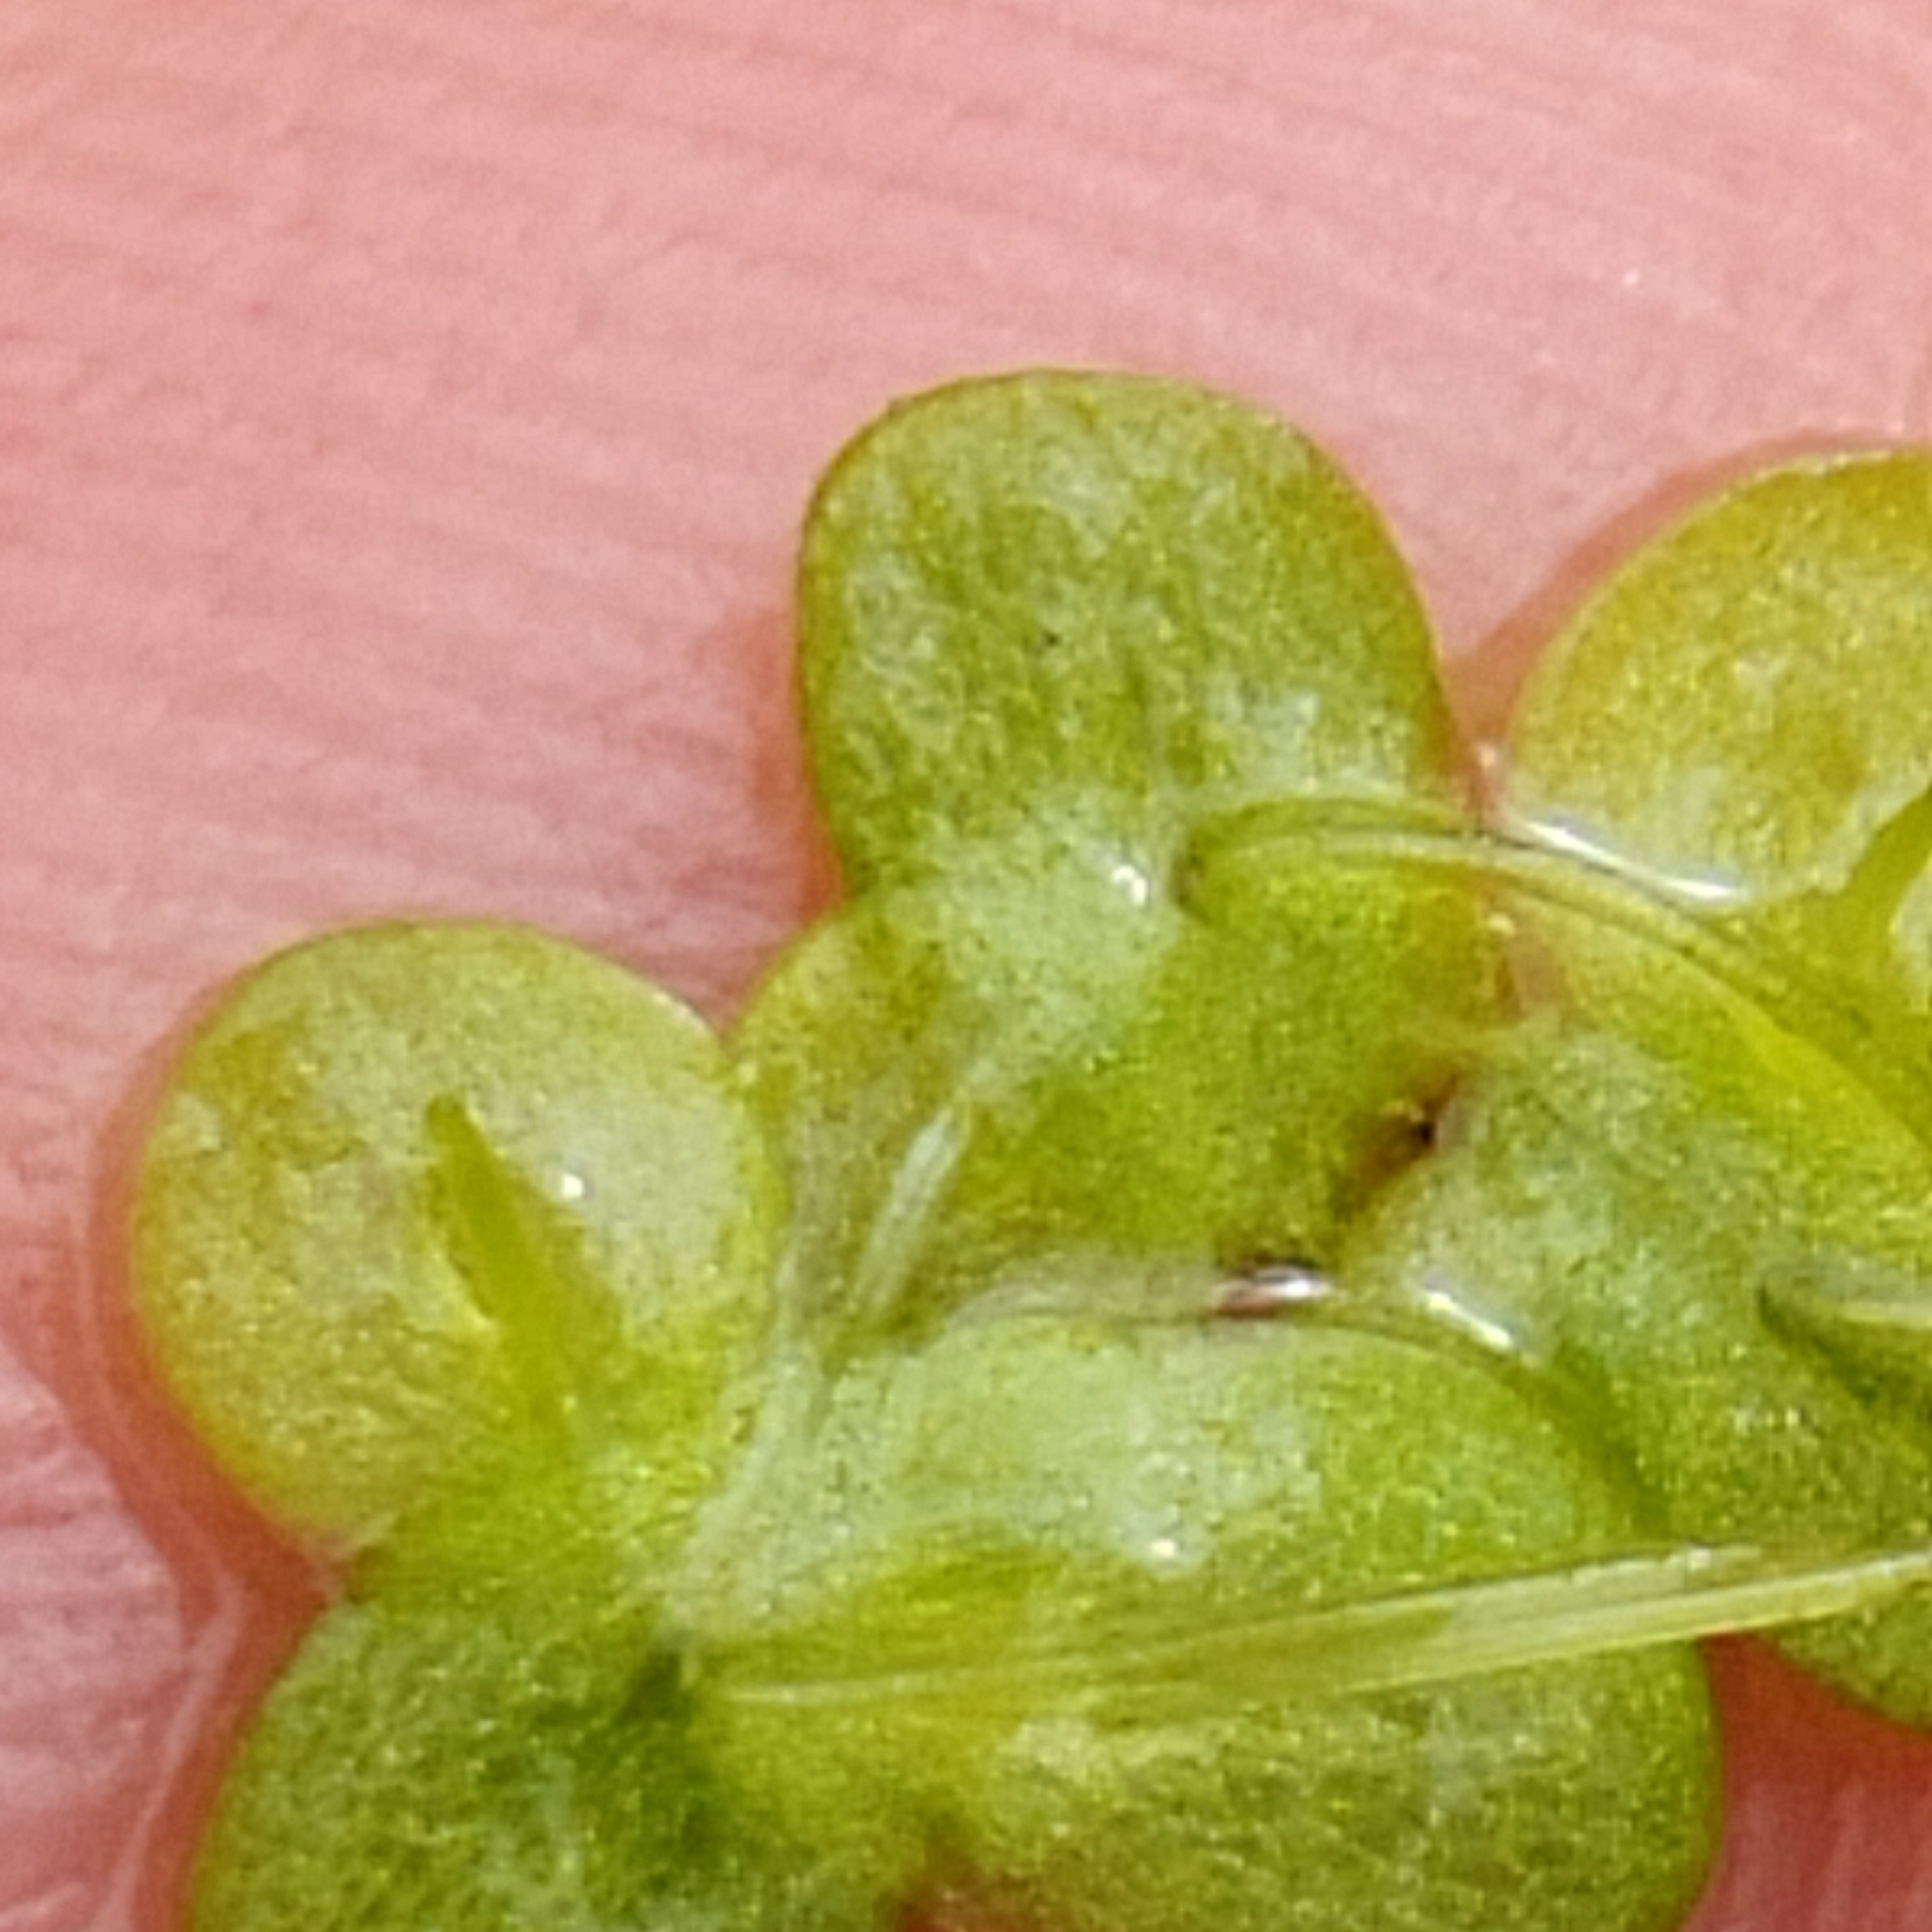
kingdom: Plantae
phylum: Tracheophyta
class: Liliopsida
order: Alismatales
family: Araceae
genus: Lemna
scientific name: Lemna disperma
